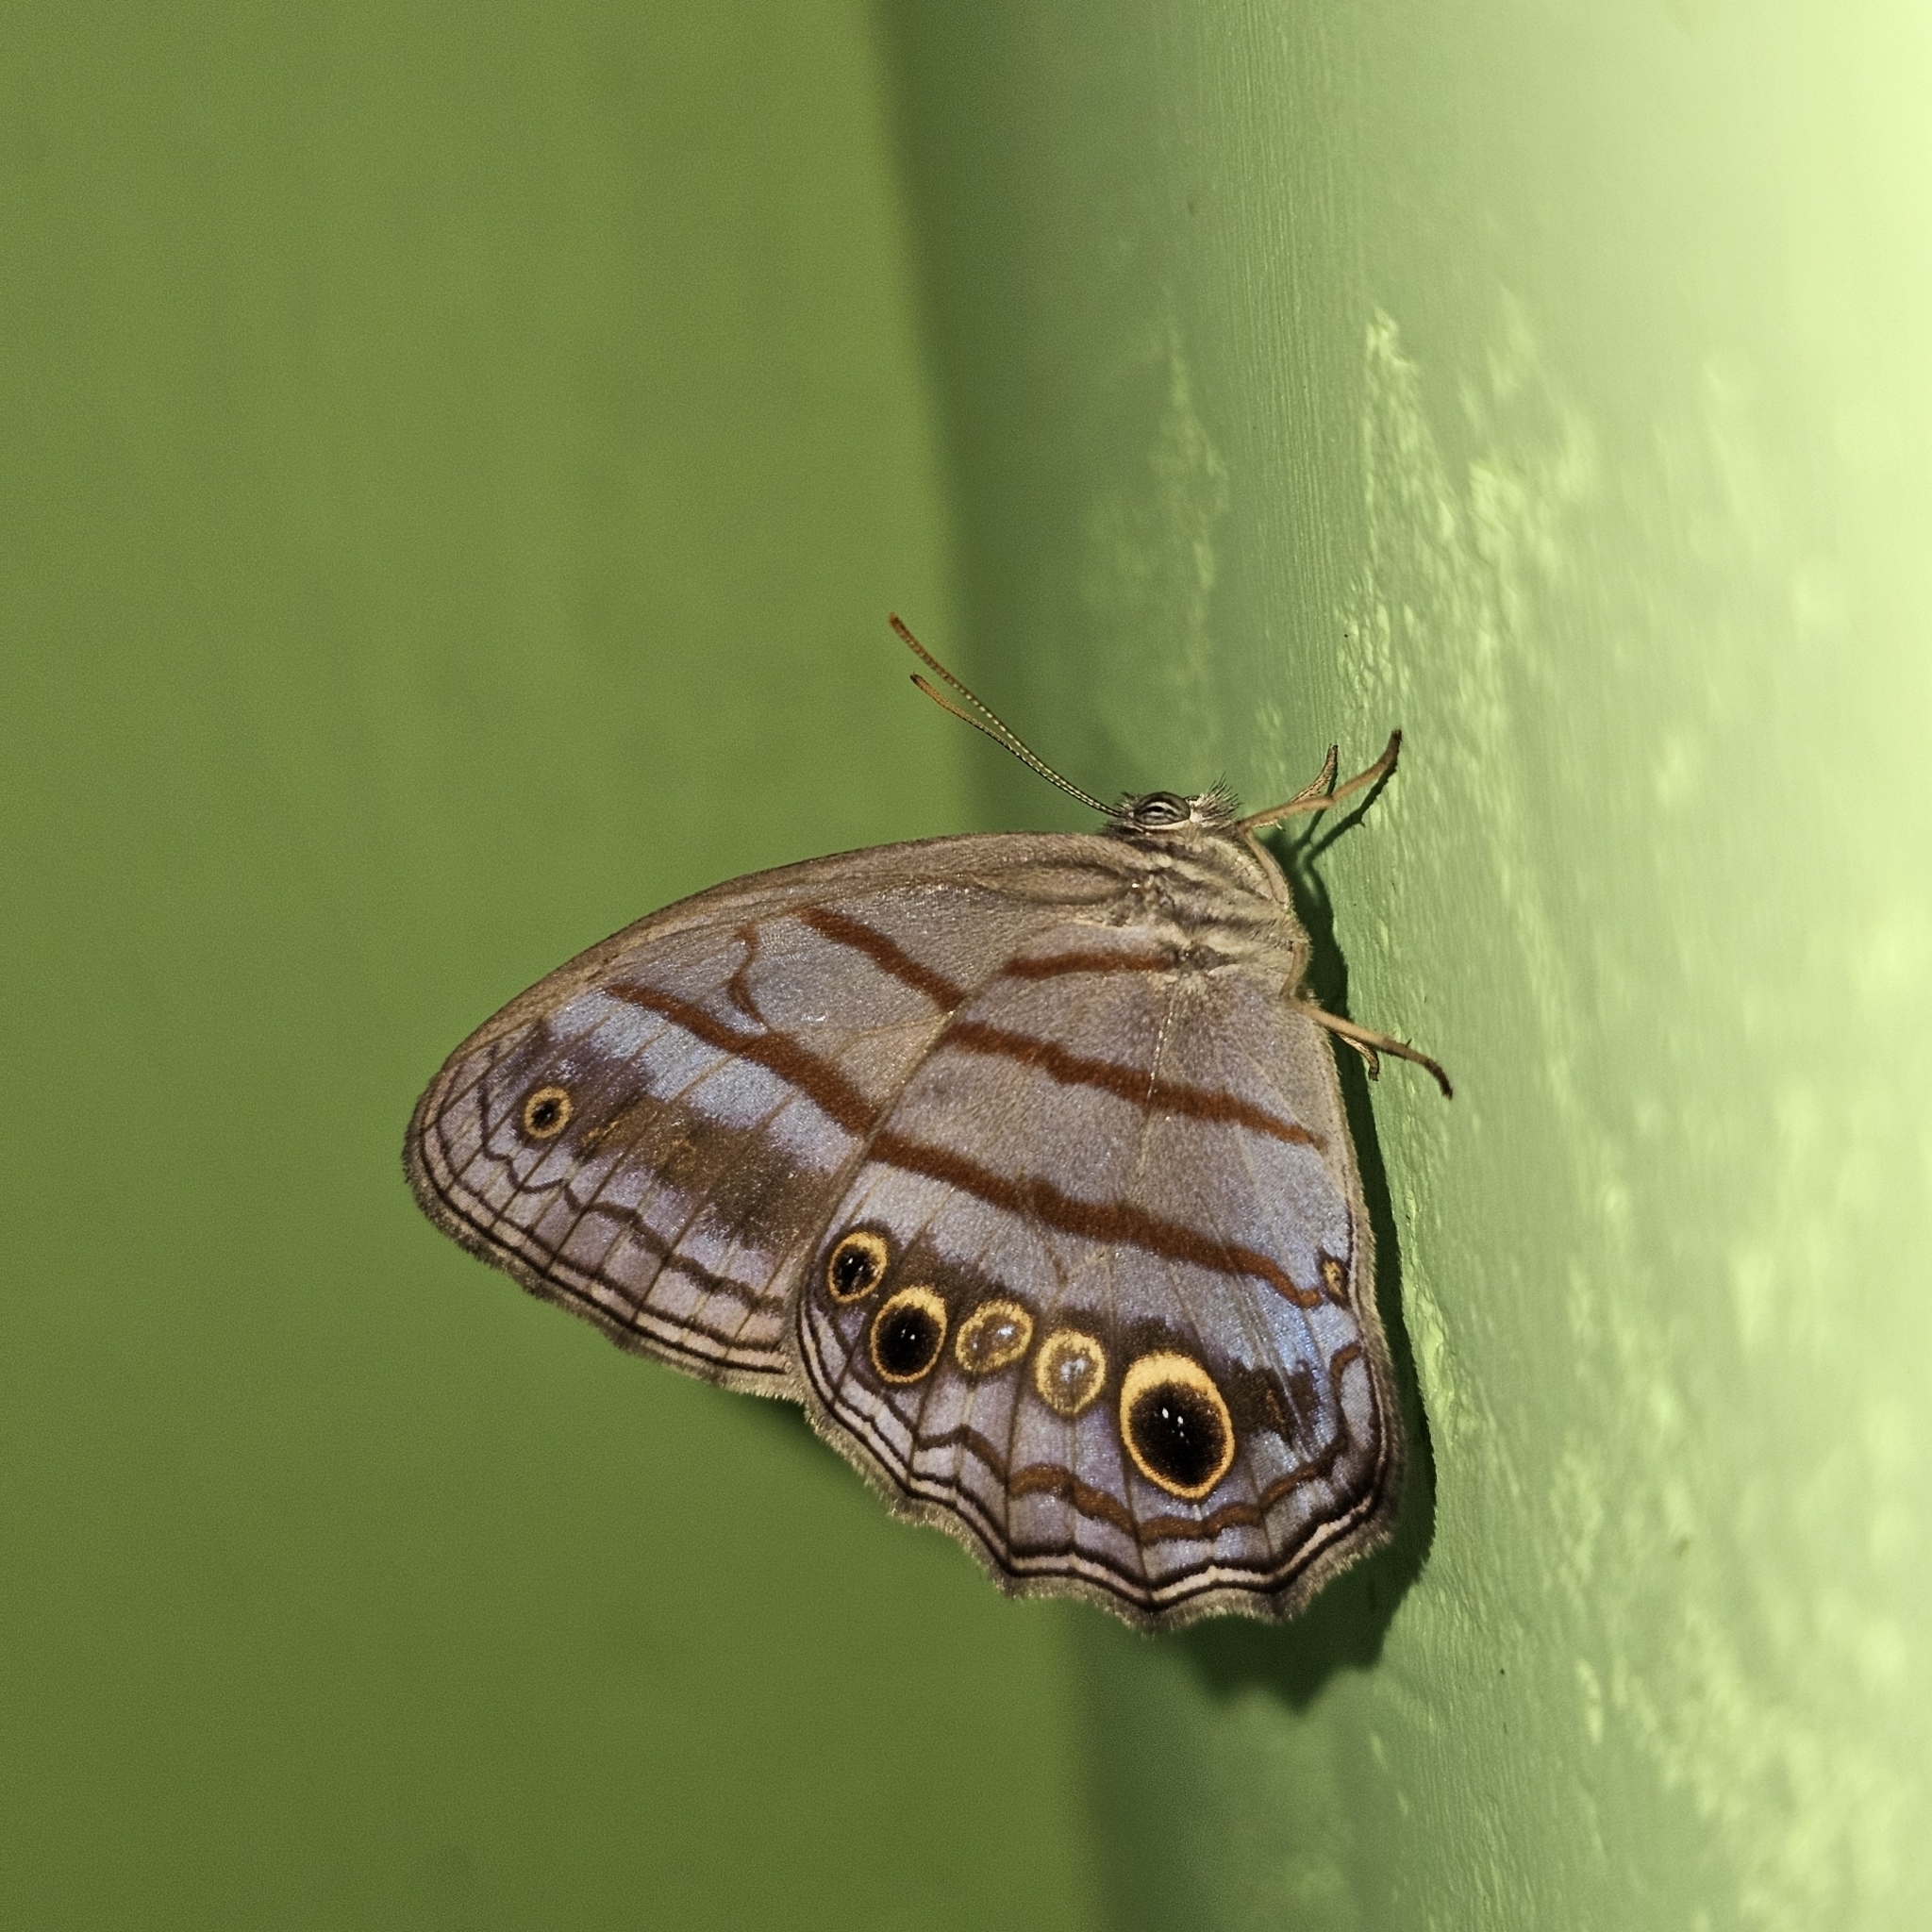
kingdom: Animalia
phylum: Arthropoda
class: Insecta
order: Lepidoptera
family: Nymphalidae
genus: Magneuptychia
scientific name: Magneuptychia libye
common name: Blue-gray satyr
